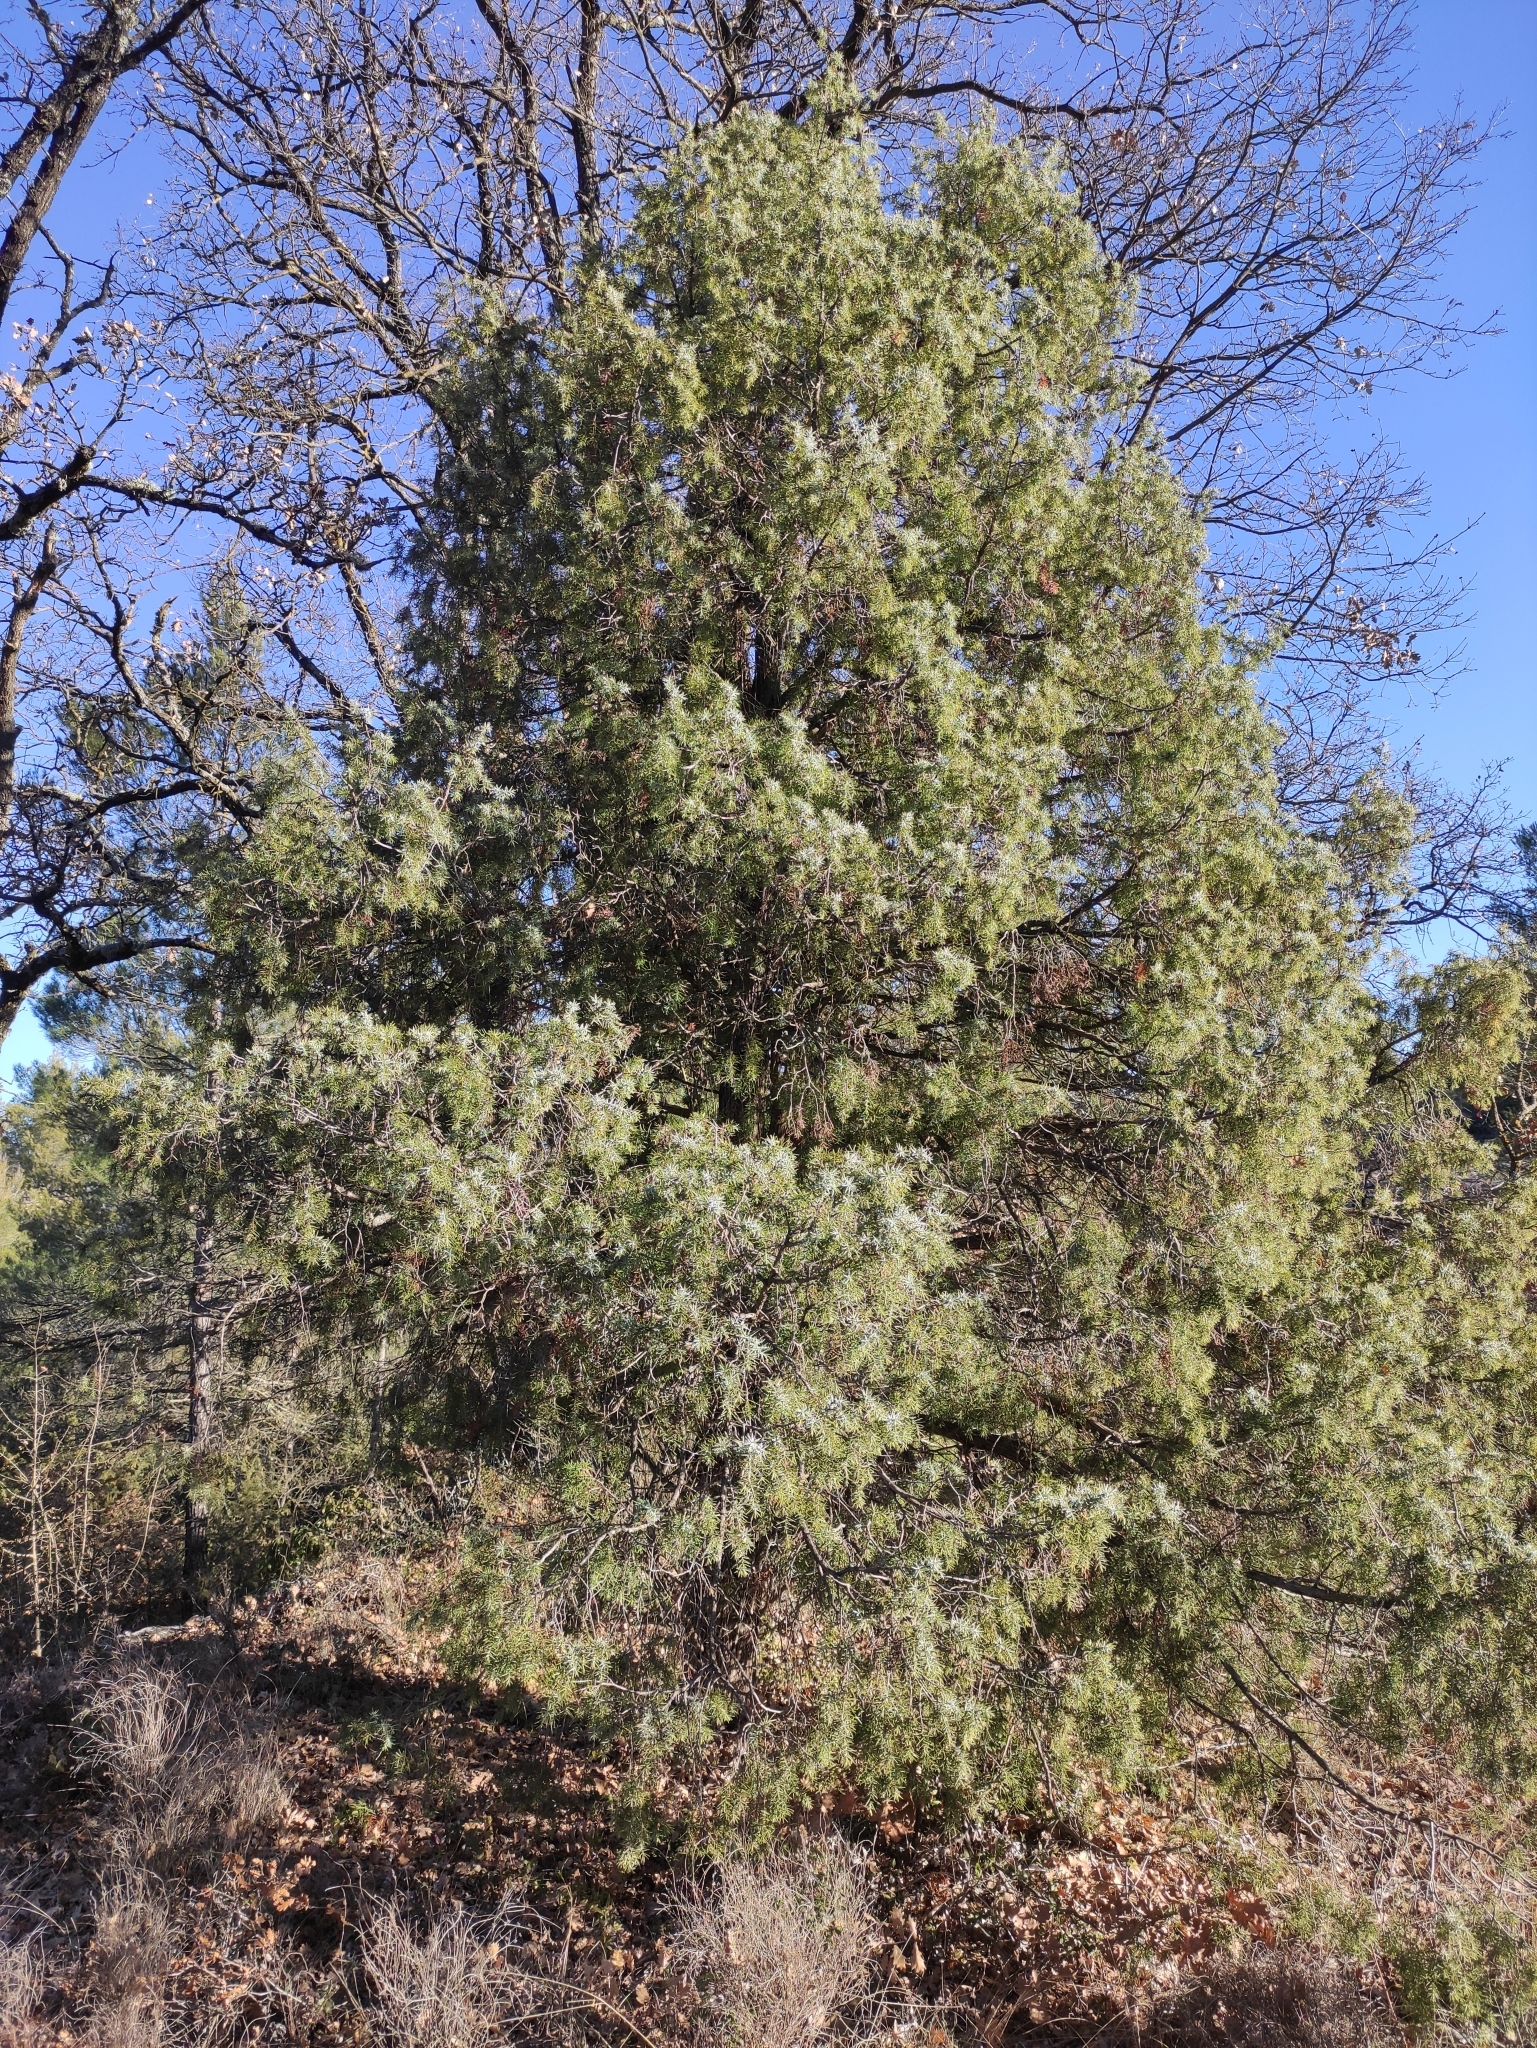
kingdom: Plantae
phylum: Tracheophyta
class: Pinopsida
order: Pinales
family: Cupressaceae
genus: Juniperus
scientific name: Juniperus oxycedrus
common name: Prickly juniper
